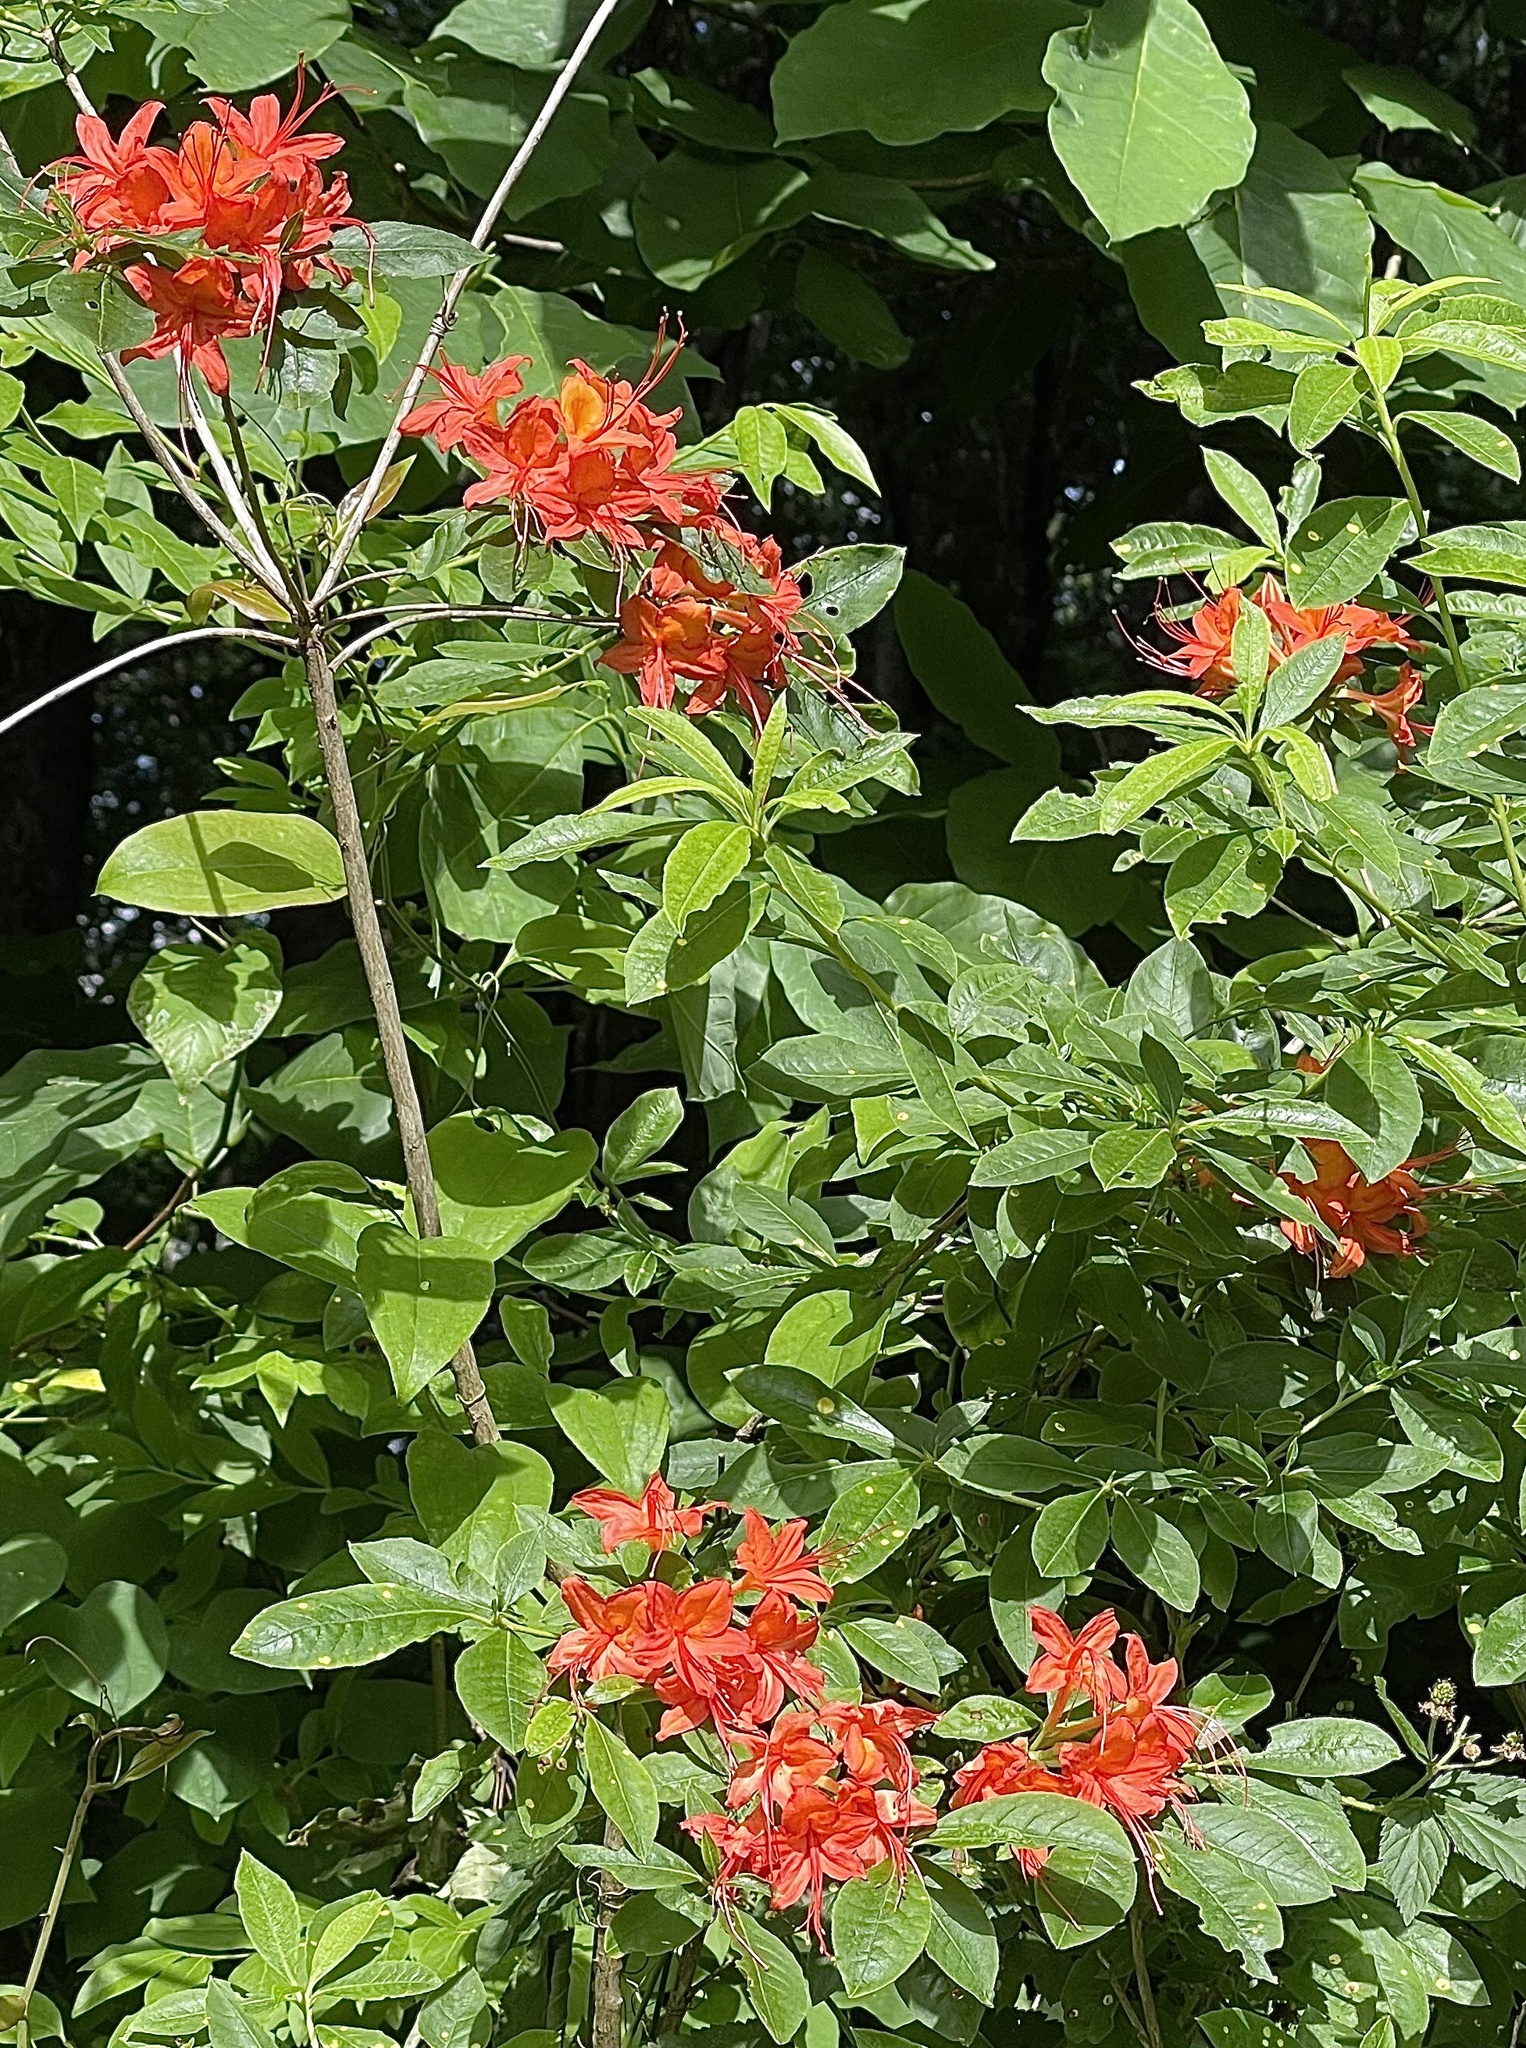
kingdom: Plantae
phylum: Tracheophyta
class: Magnoliopsida
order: Ericales
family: Ericaceae
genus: Rhododendron
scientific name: Rhododendron calendulaceum
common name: Flame azalea
